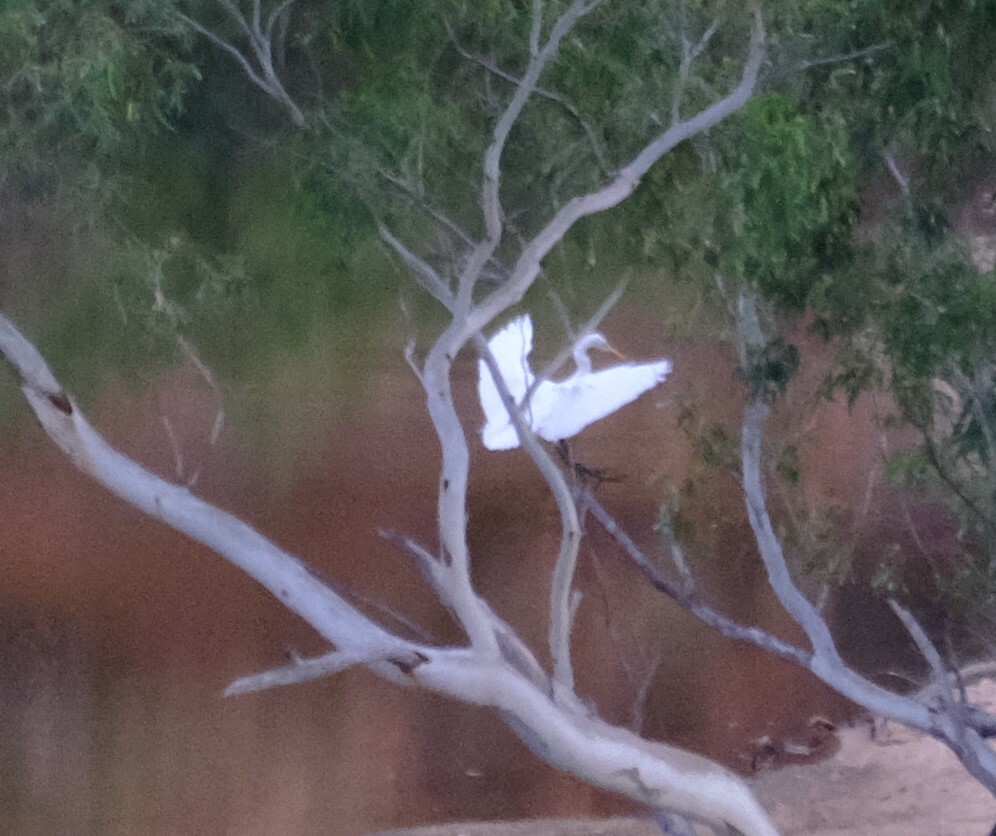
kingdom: Animalia
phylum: Chordata
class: Aves
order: Pelecaniformes
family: Ardeidae
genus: Ardea
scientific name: Ardea alba
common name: Great egret
